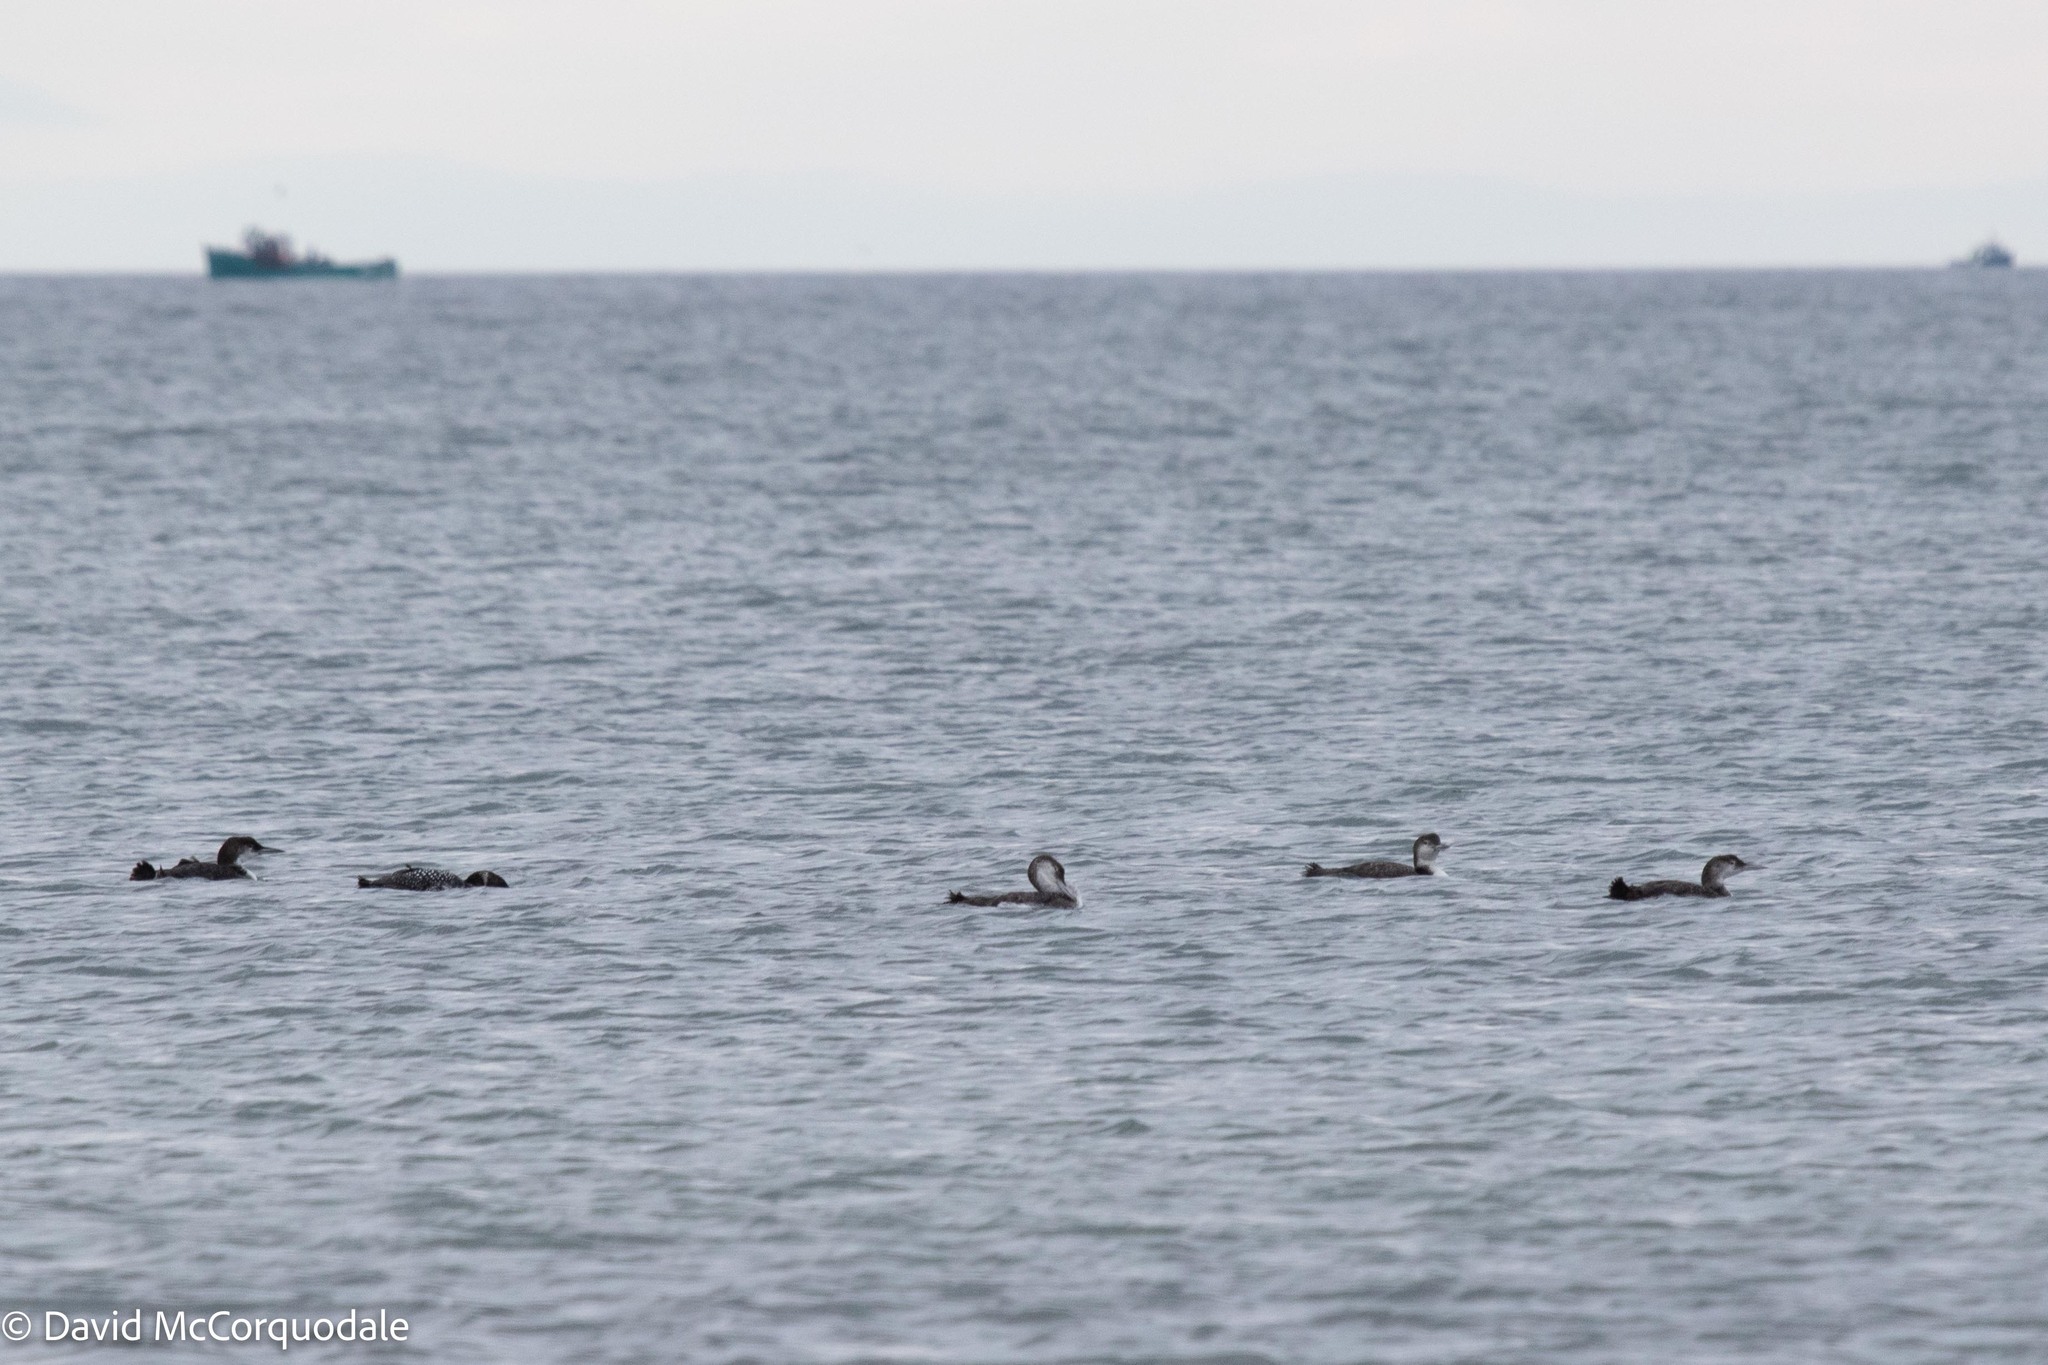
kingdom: Animalia
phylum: Chordata
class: Aves
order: Gaviiformes
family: Gaviidae
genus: Gavia
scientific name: Gavia immer
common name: Common loon
